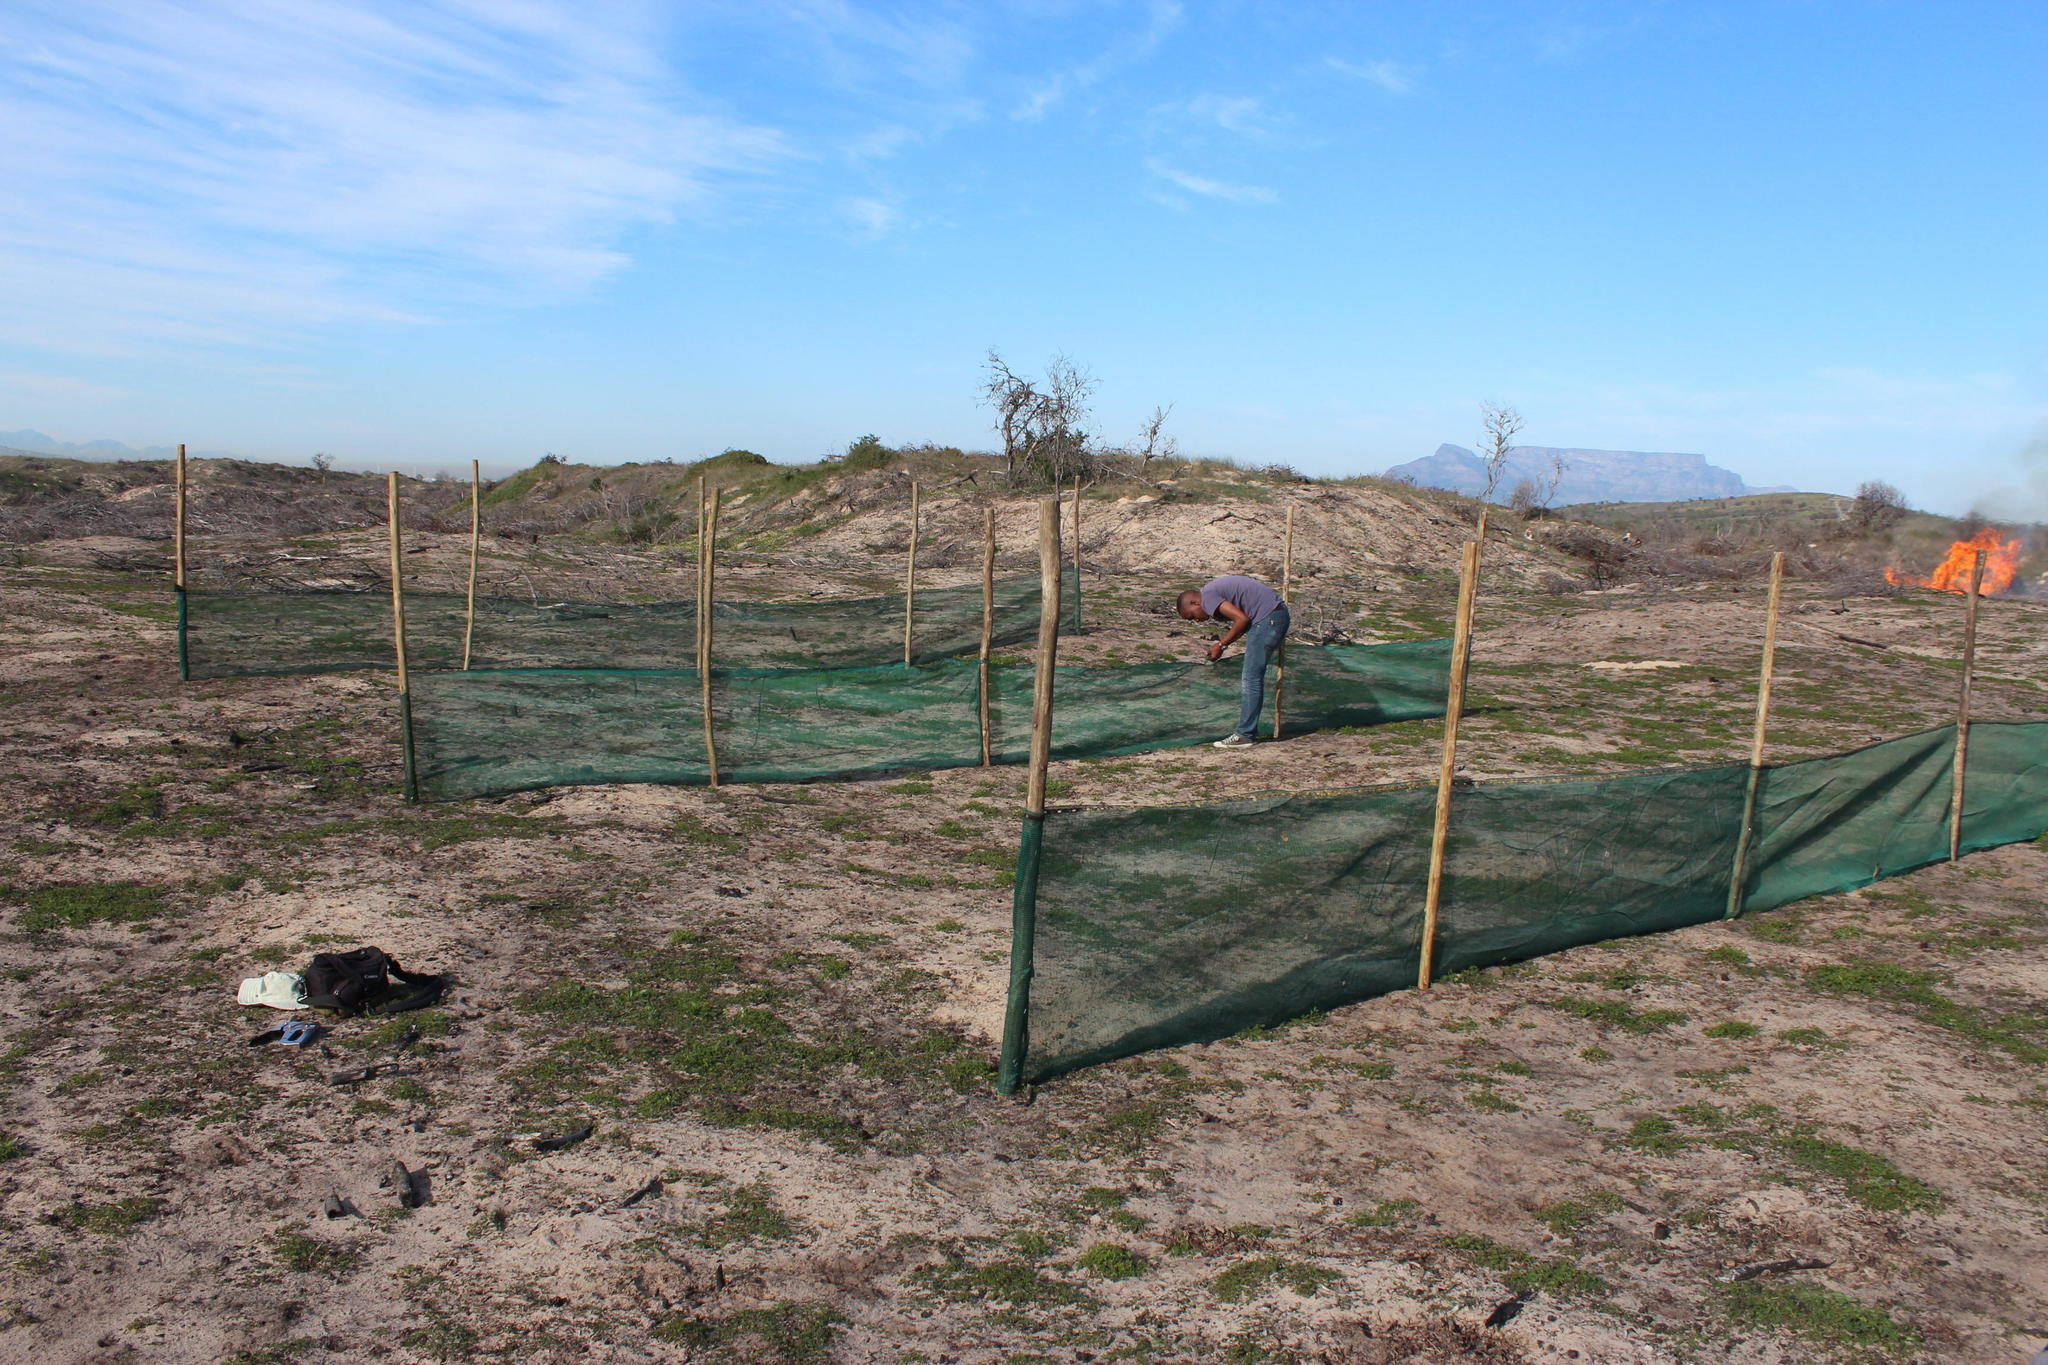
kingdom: Plantae
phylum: Tracheophyta
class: Magnoliopsida
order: Fabales
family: Fabaceae
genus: Acacia
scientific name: Acacia saligna
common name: Orange wattle
